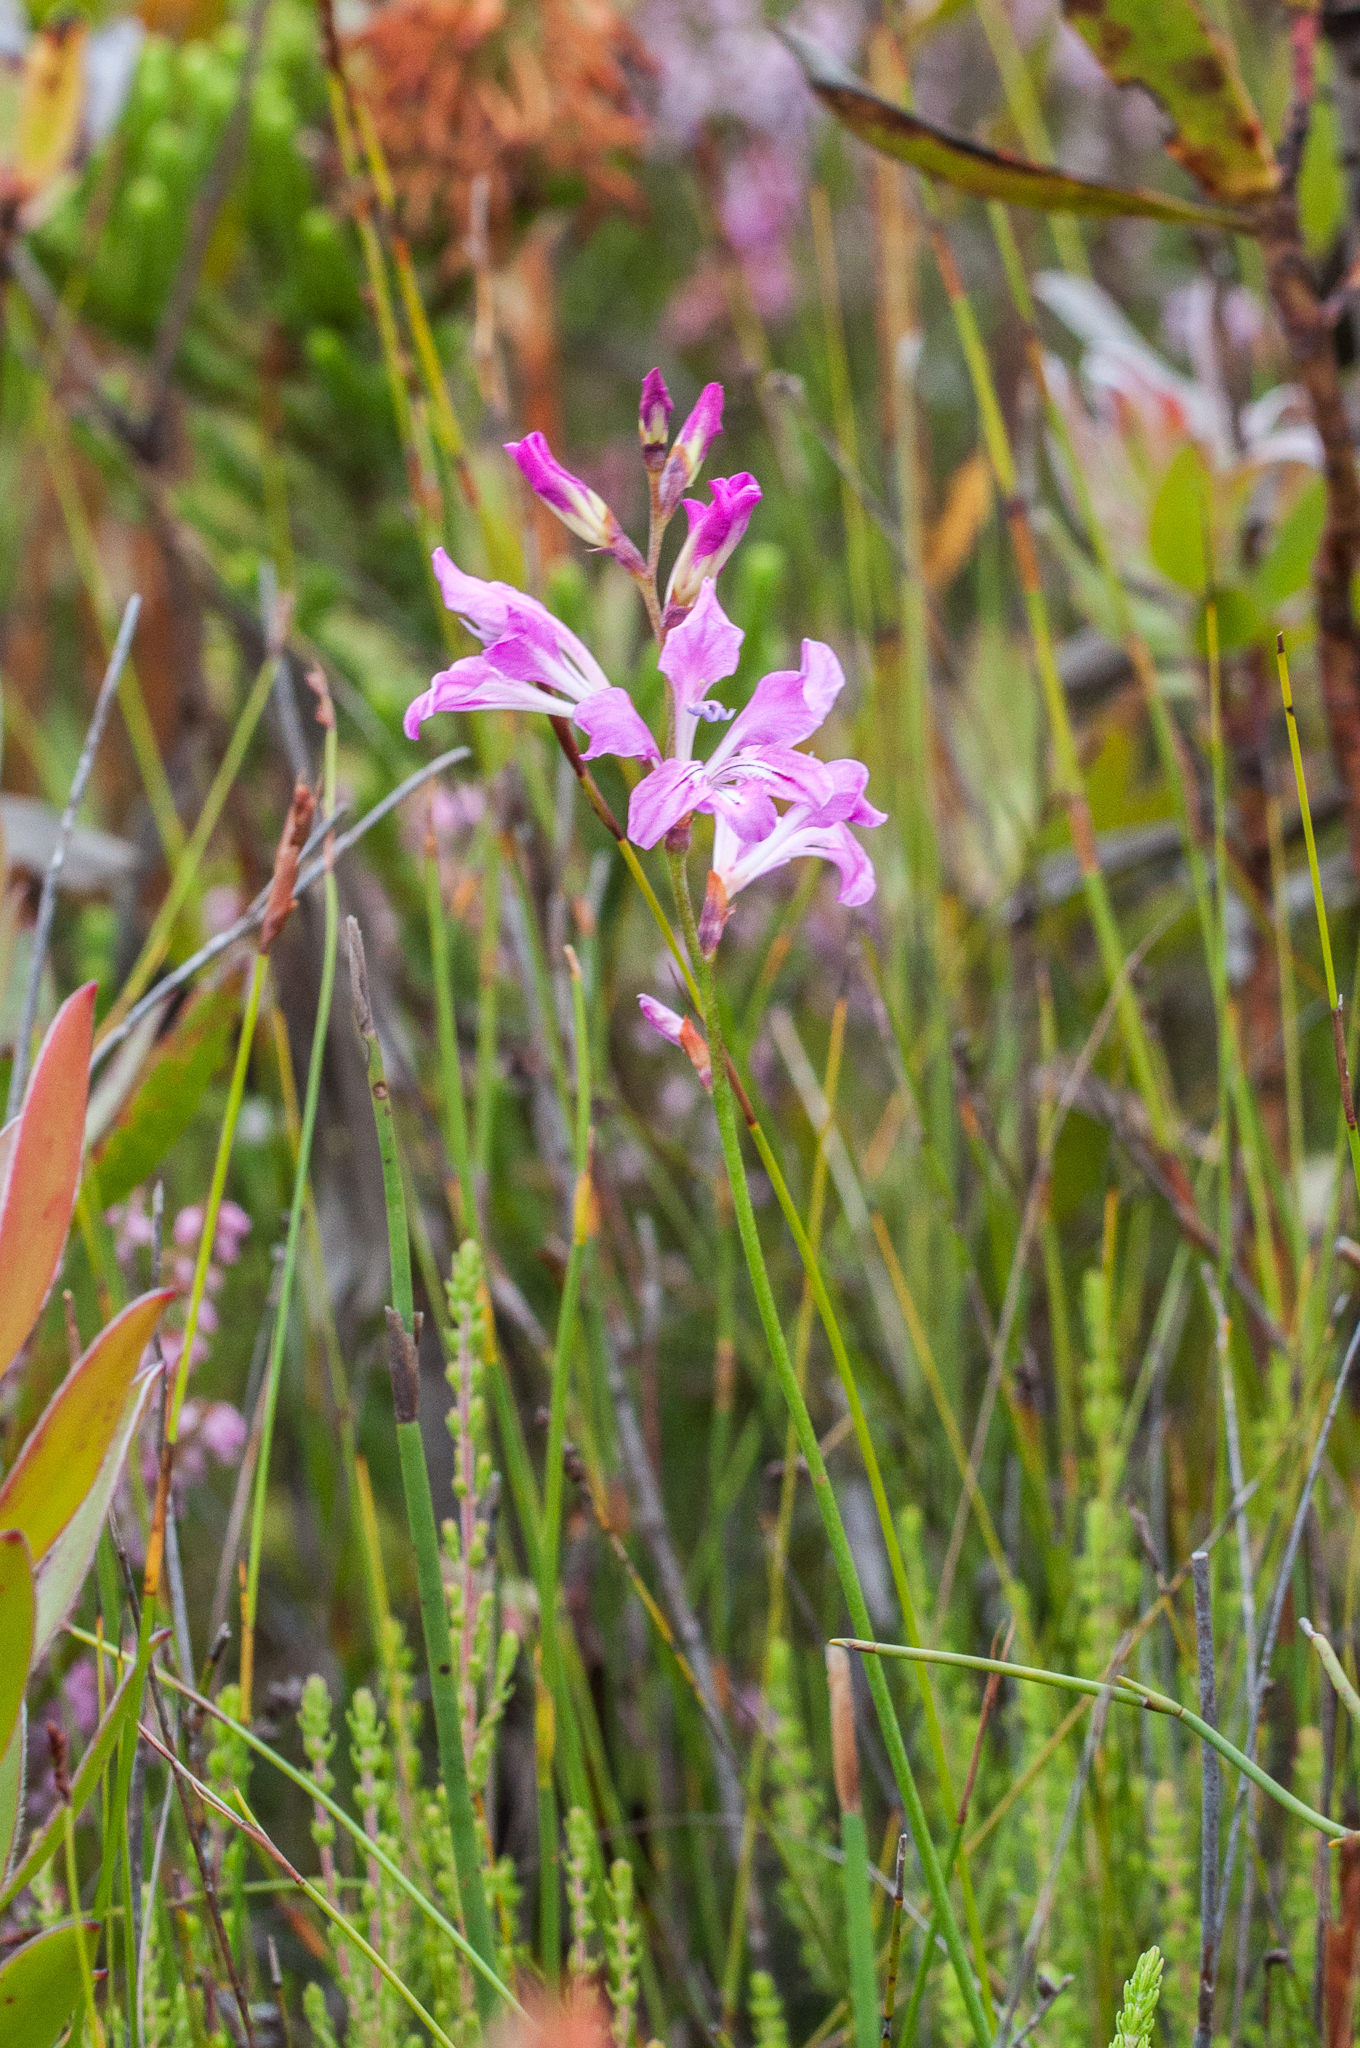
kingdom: Plantae
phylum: Tracheophyta
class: Liliopsida
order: Asparagales
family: Iridaceae
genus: Tritoniopsis
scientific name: Tritoniopsis lata
